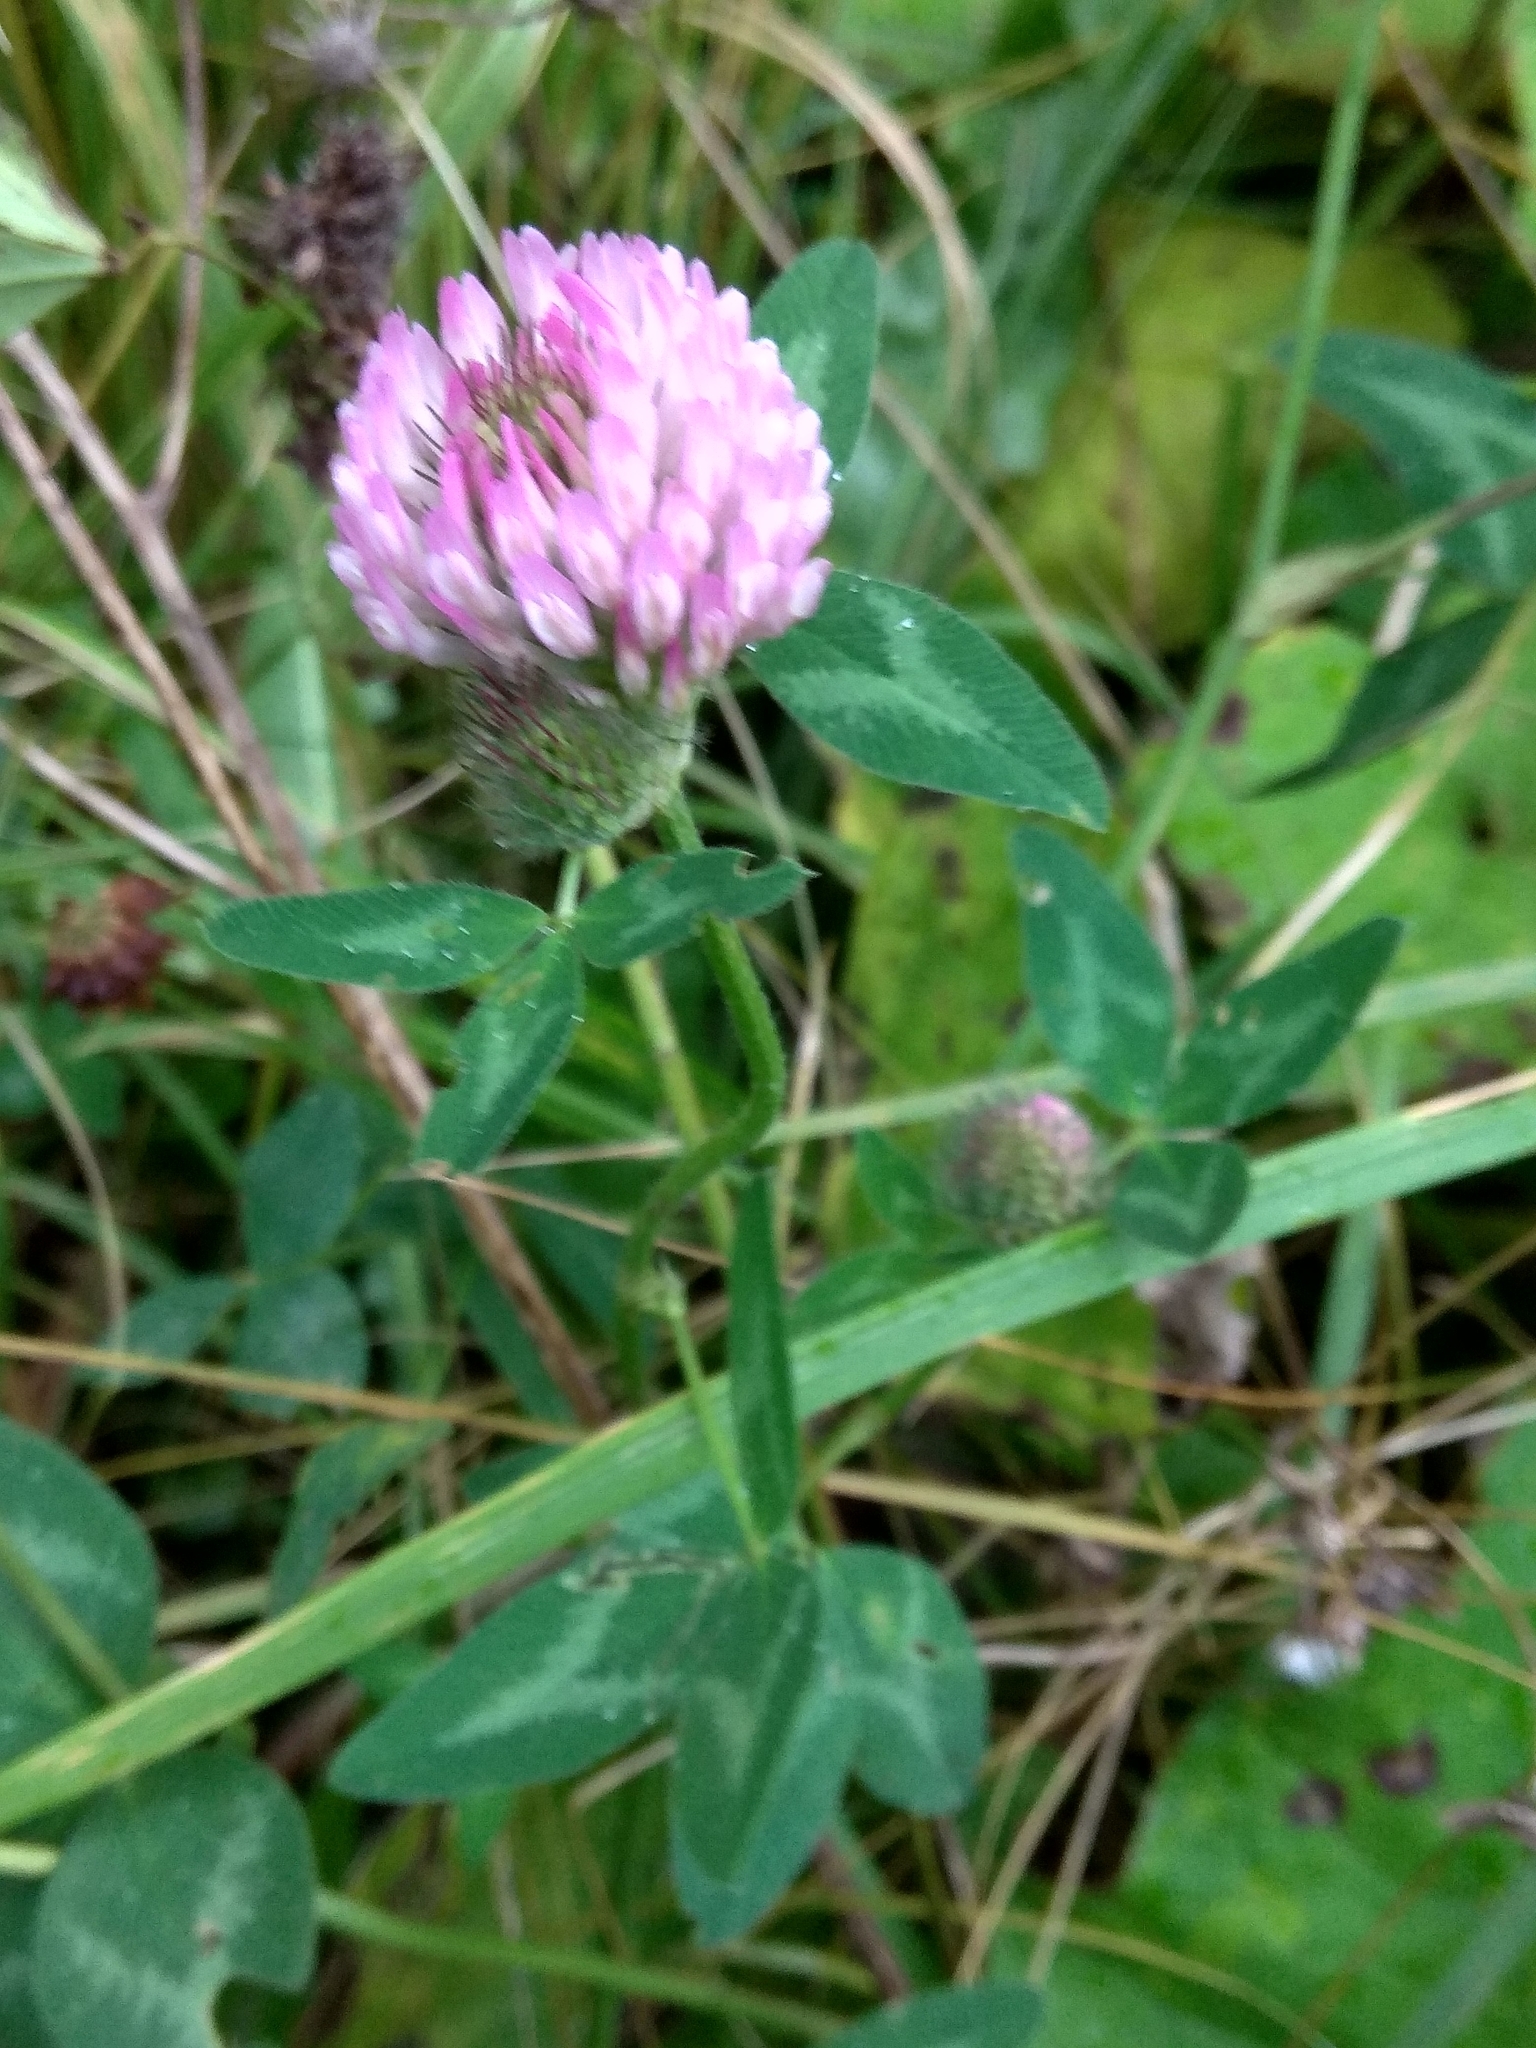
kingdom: Plantae
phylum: Tracheophyta
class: Magnoliopsida
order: Fabales
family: Fabaceae
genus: Trifolium
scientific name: Trifolium pratense
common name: Red clover
